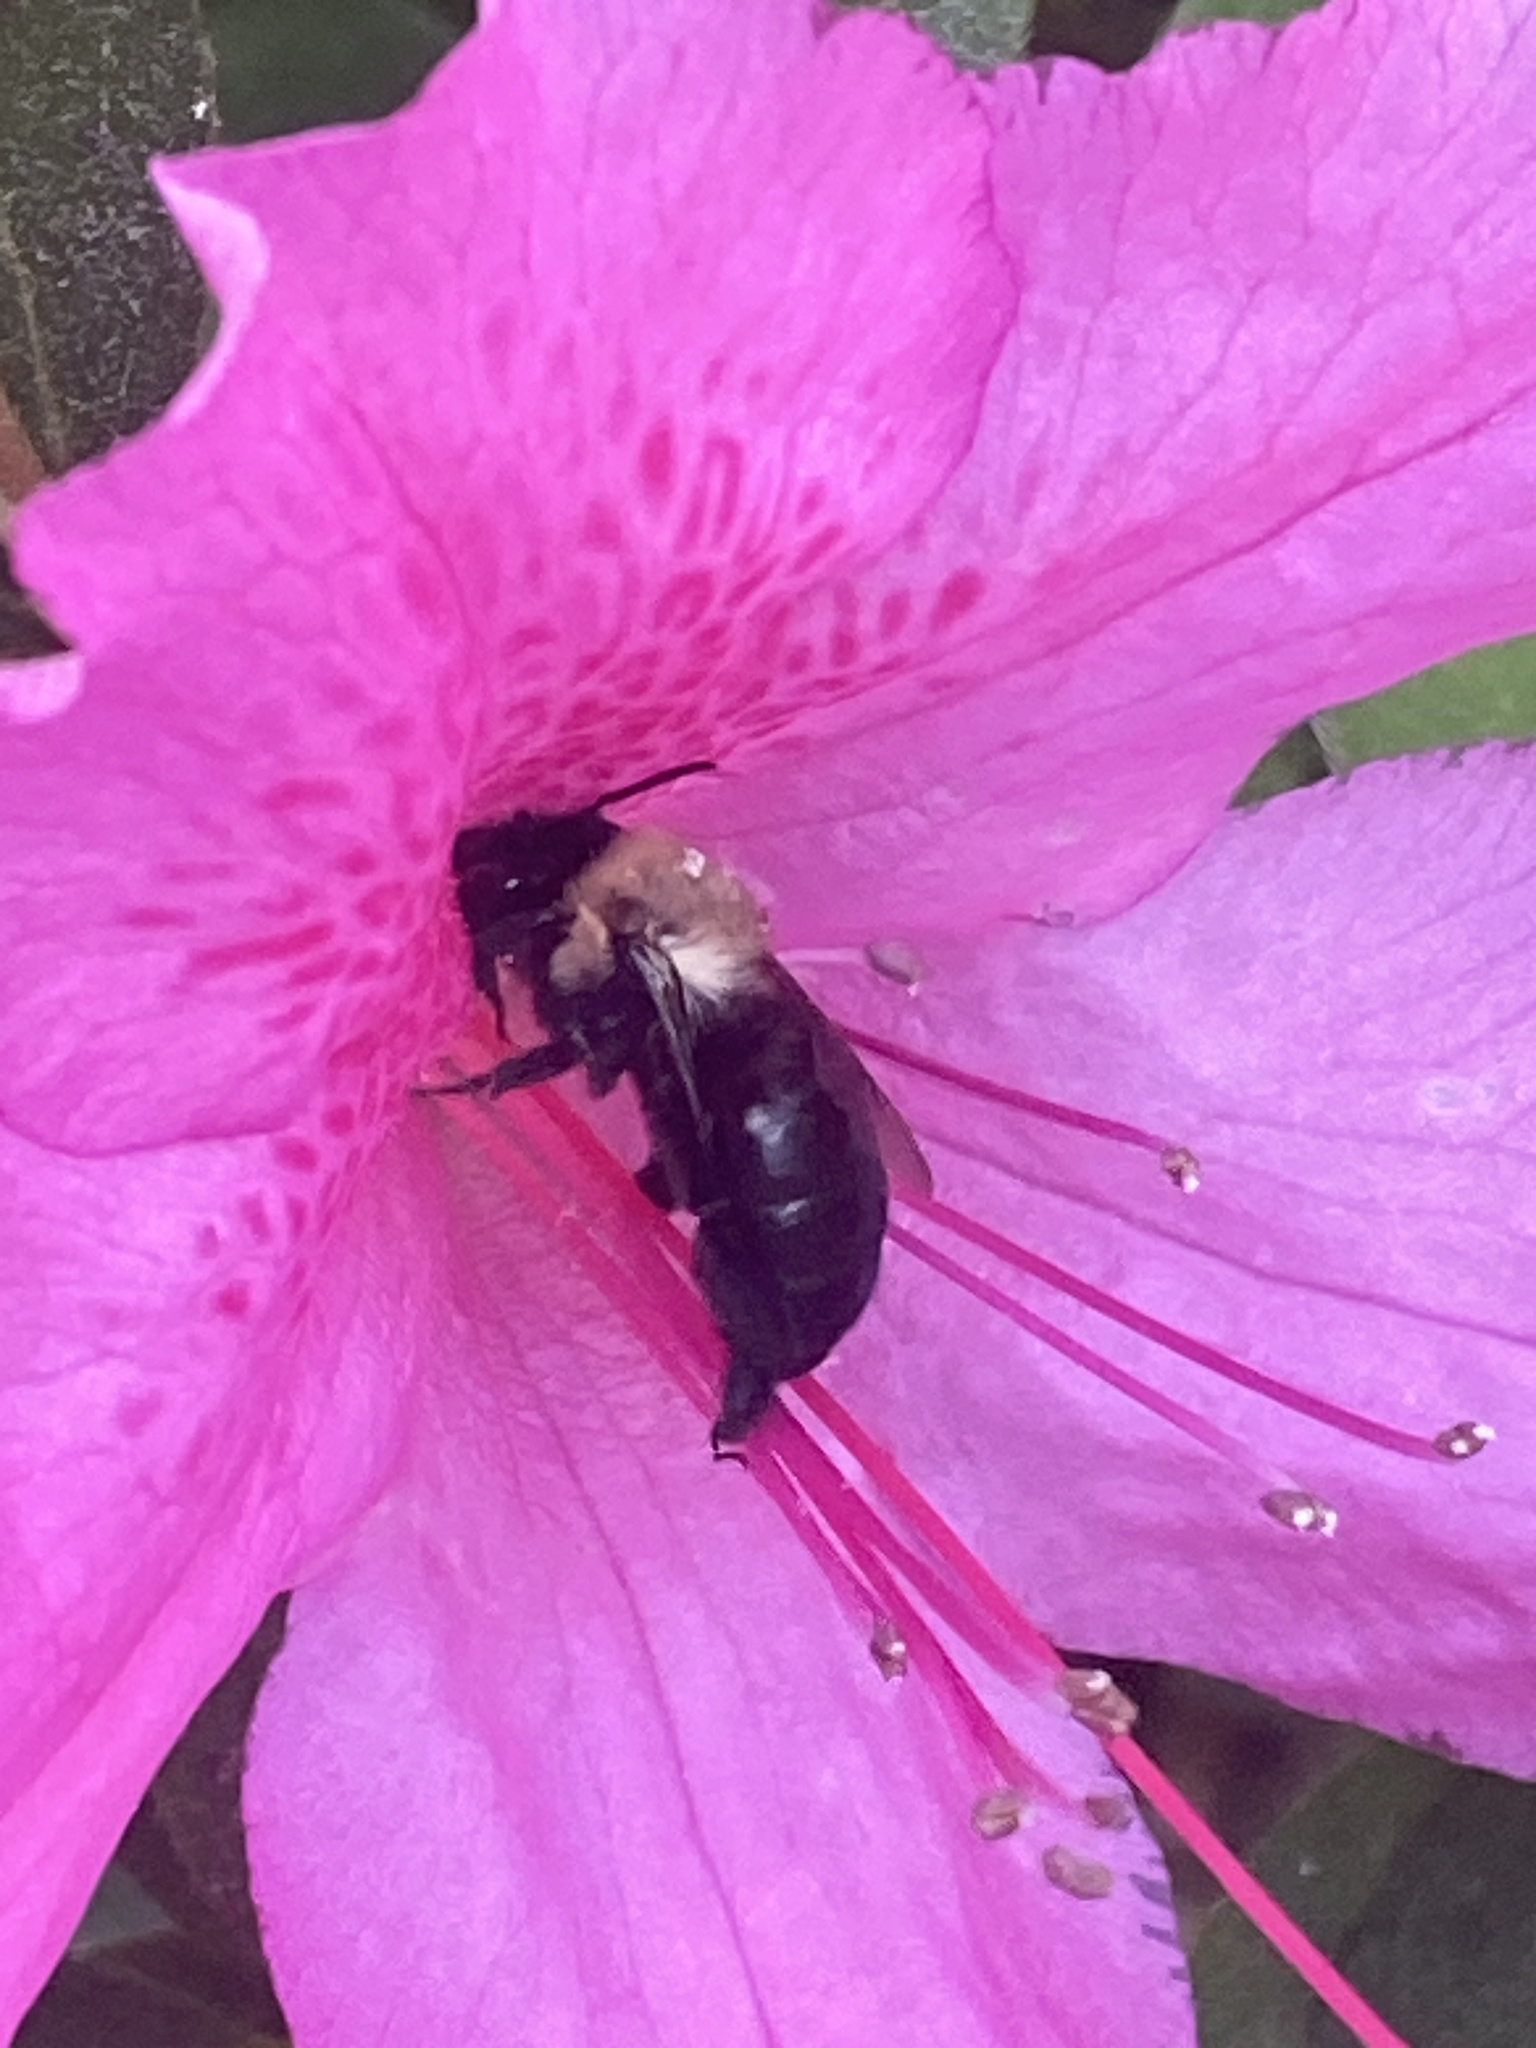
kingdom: Animalia
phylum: Arthropoda
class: Insecta
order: Hymenoptera
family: Apidae
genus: Habropoda
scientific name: Habropoda laboriosa
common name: Southeastern blueberry bee
